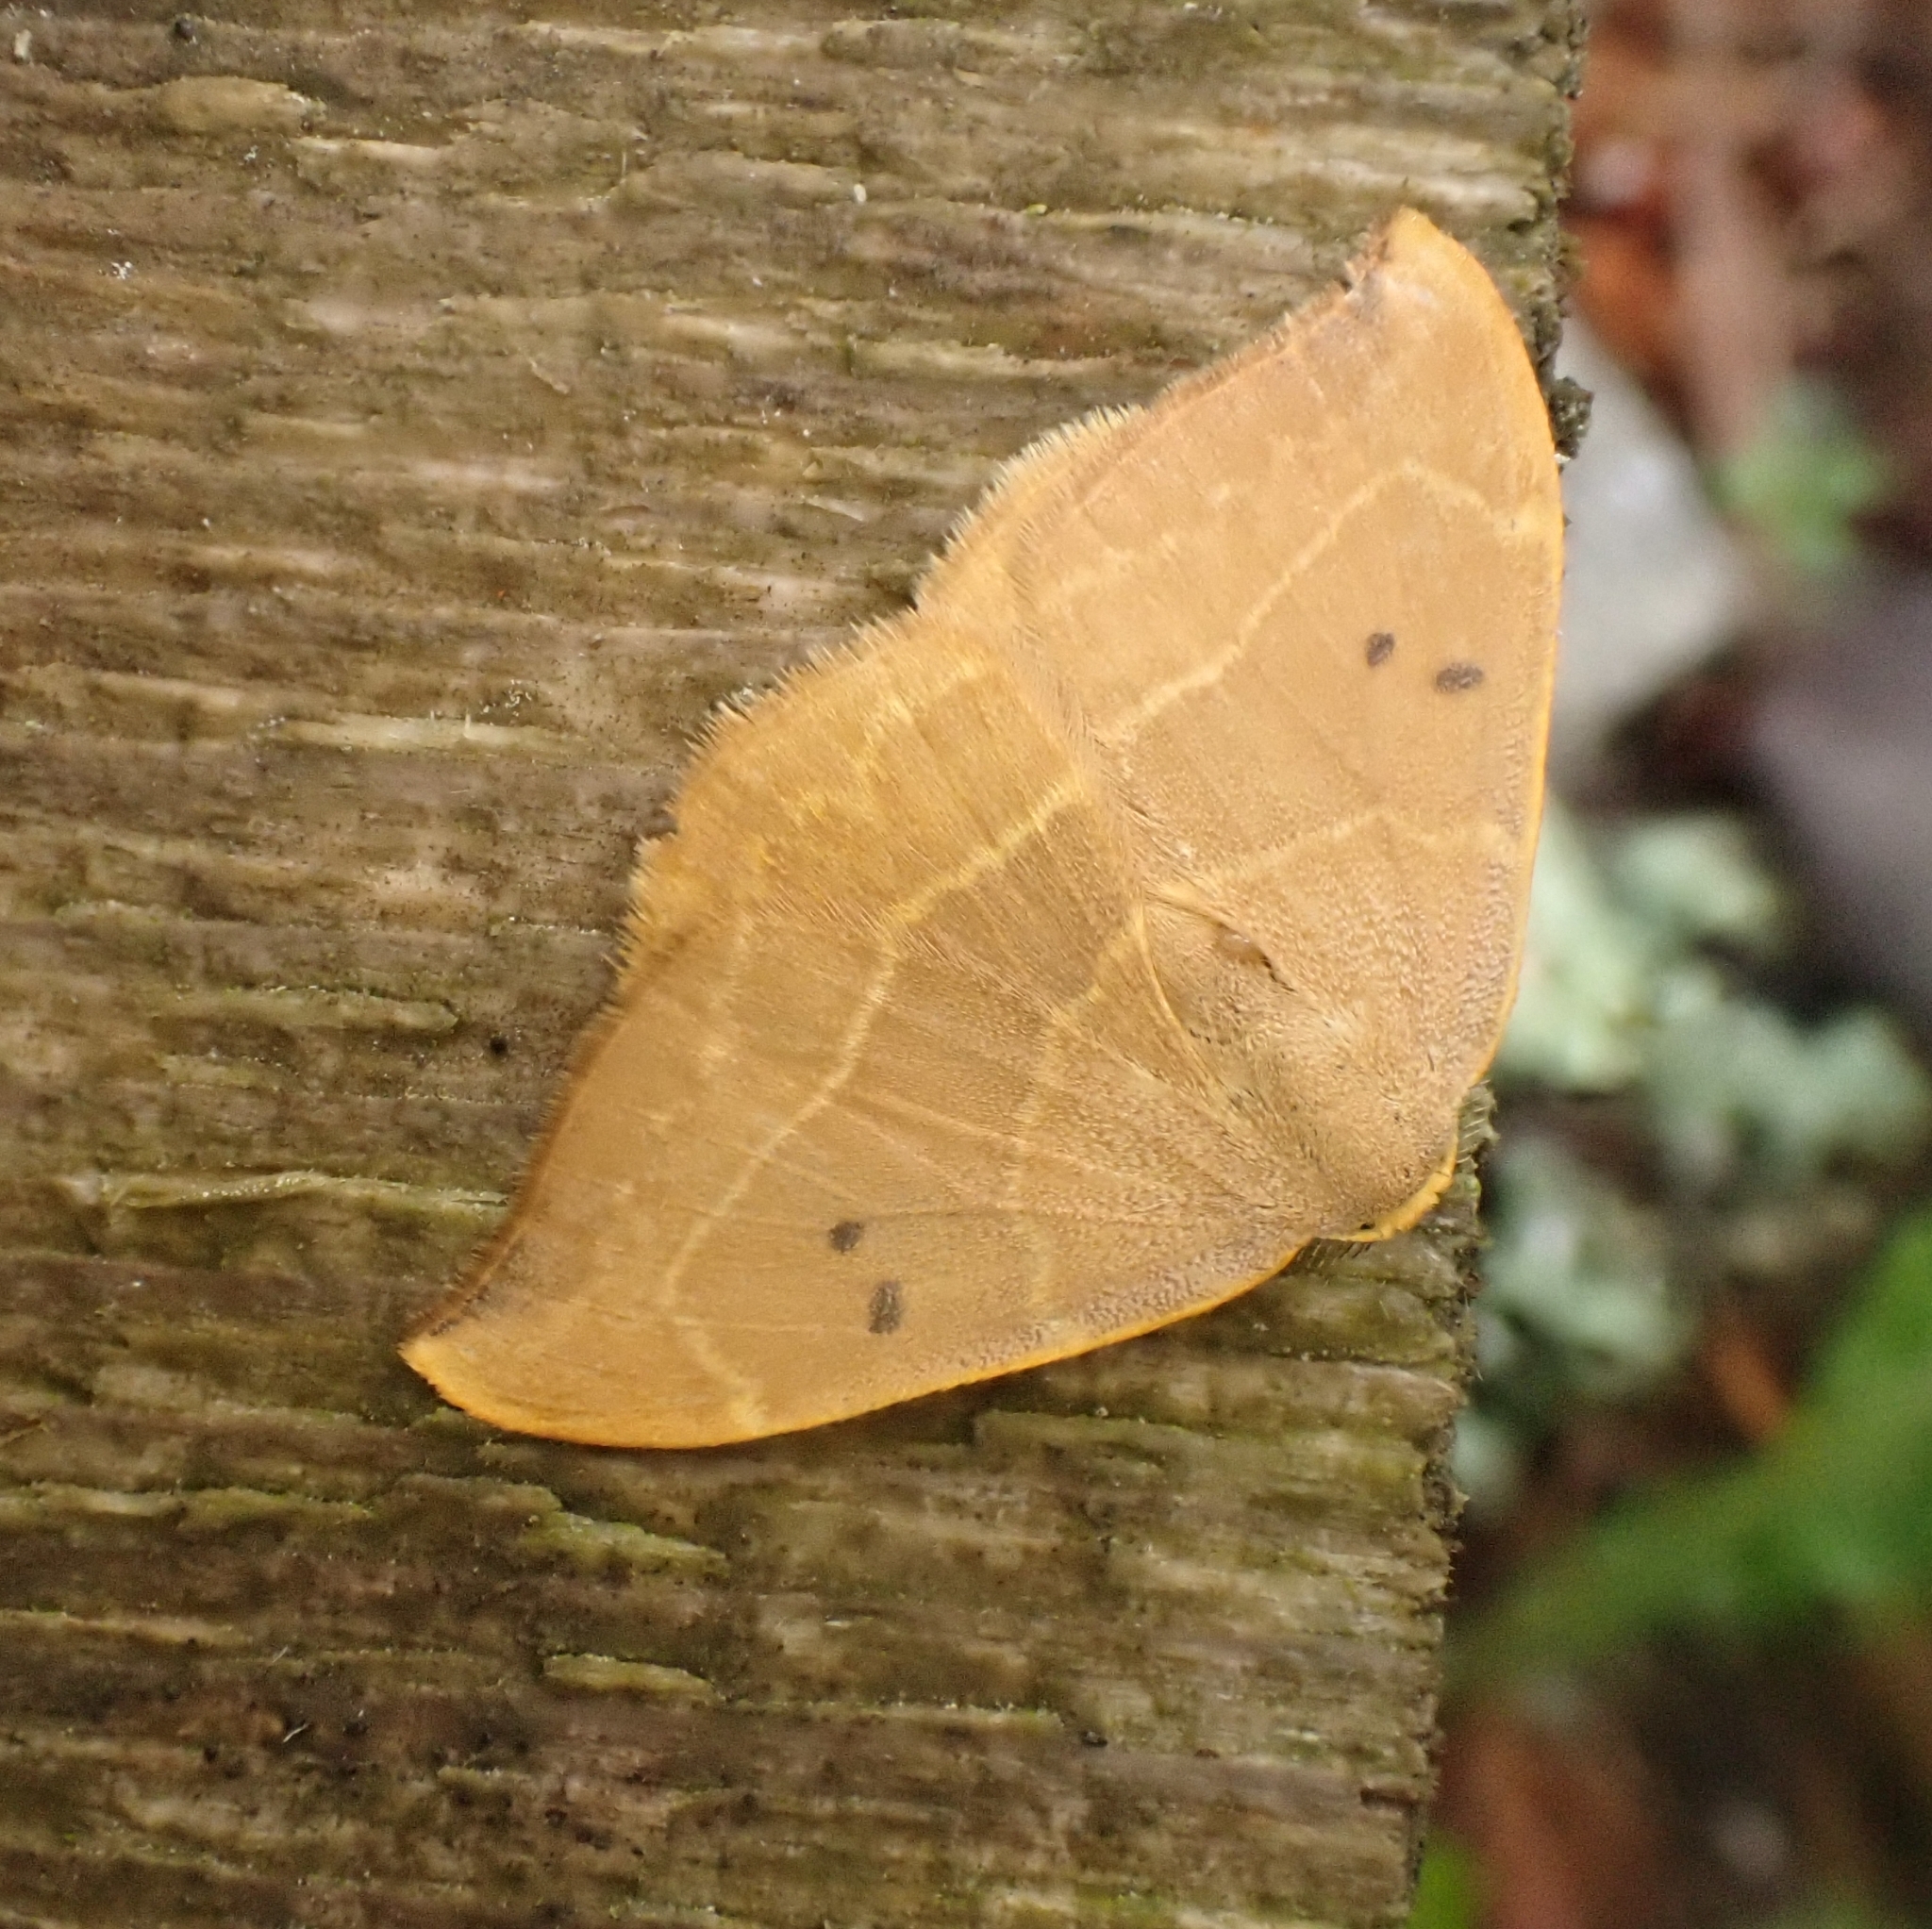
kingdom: Animalia
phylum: Arthropoda
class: Insecta
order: Lepidoptera
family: Drepanidae
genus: Watsonalla
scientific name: Watsonalla binaria
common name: Oak hook-tip
